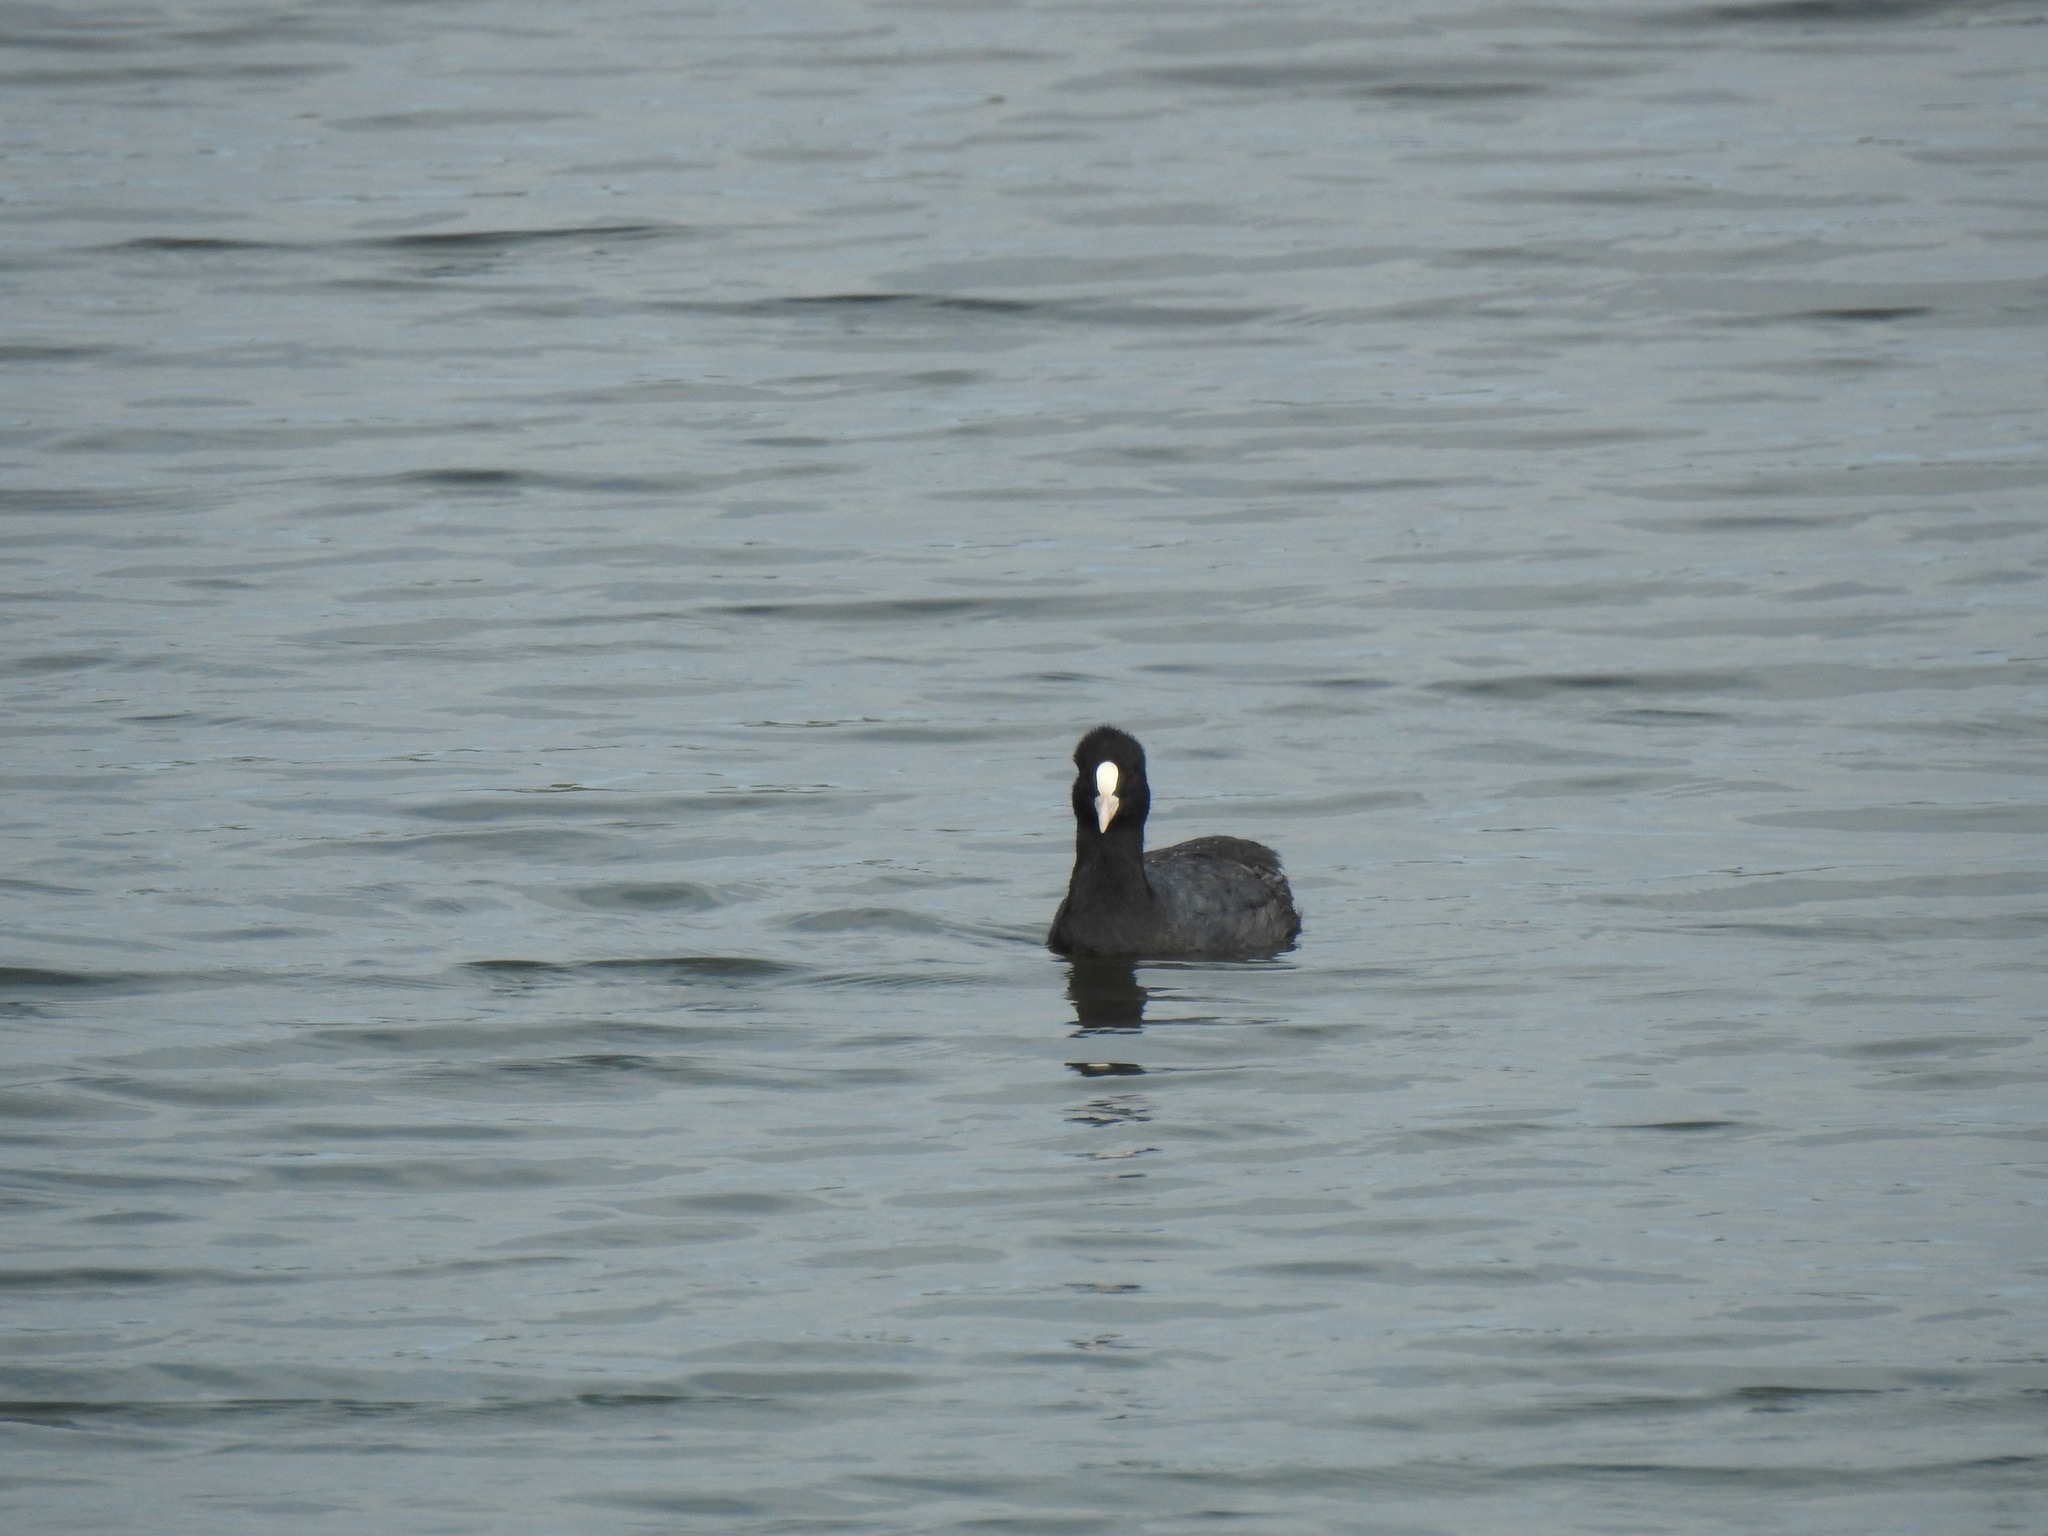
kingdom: Animalia
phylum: Chordata
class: Aves
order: Gruiformes
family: Rallidae
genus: Fulica
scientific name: Fulica atra
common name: Eurasian coot
